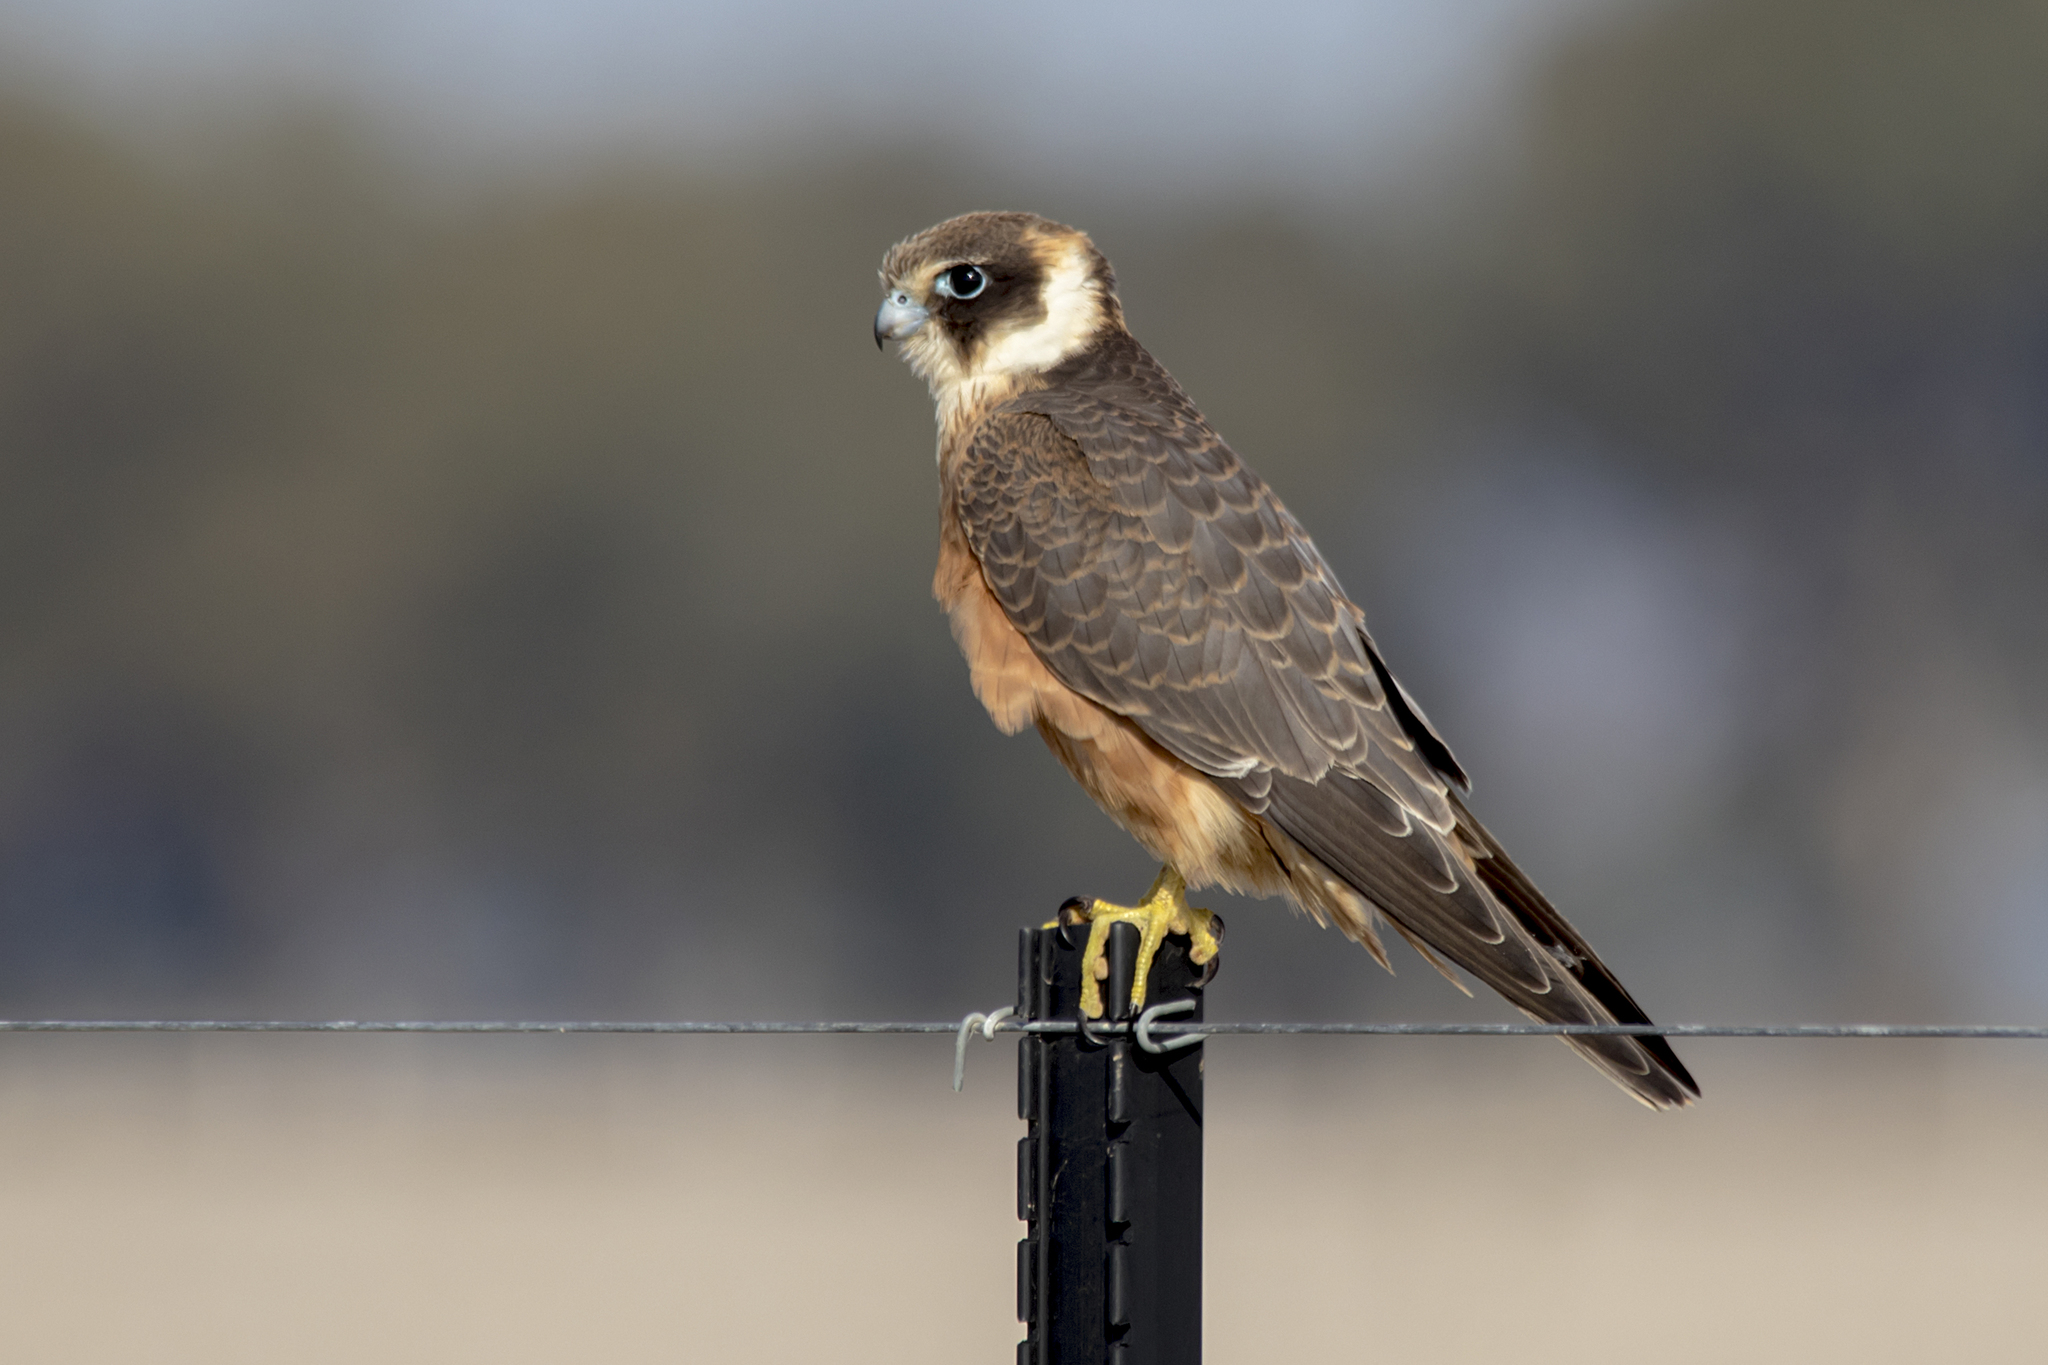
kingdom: Animalia
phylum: Chordata
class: Aves
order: Falconiformes
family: Falconidae
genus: Falco
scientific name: Falco longipennis
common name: Australian hobby
